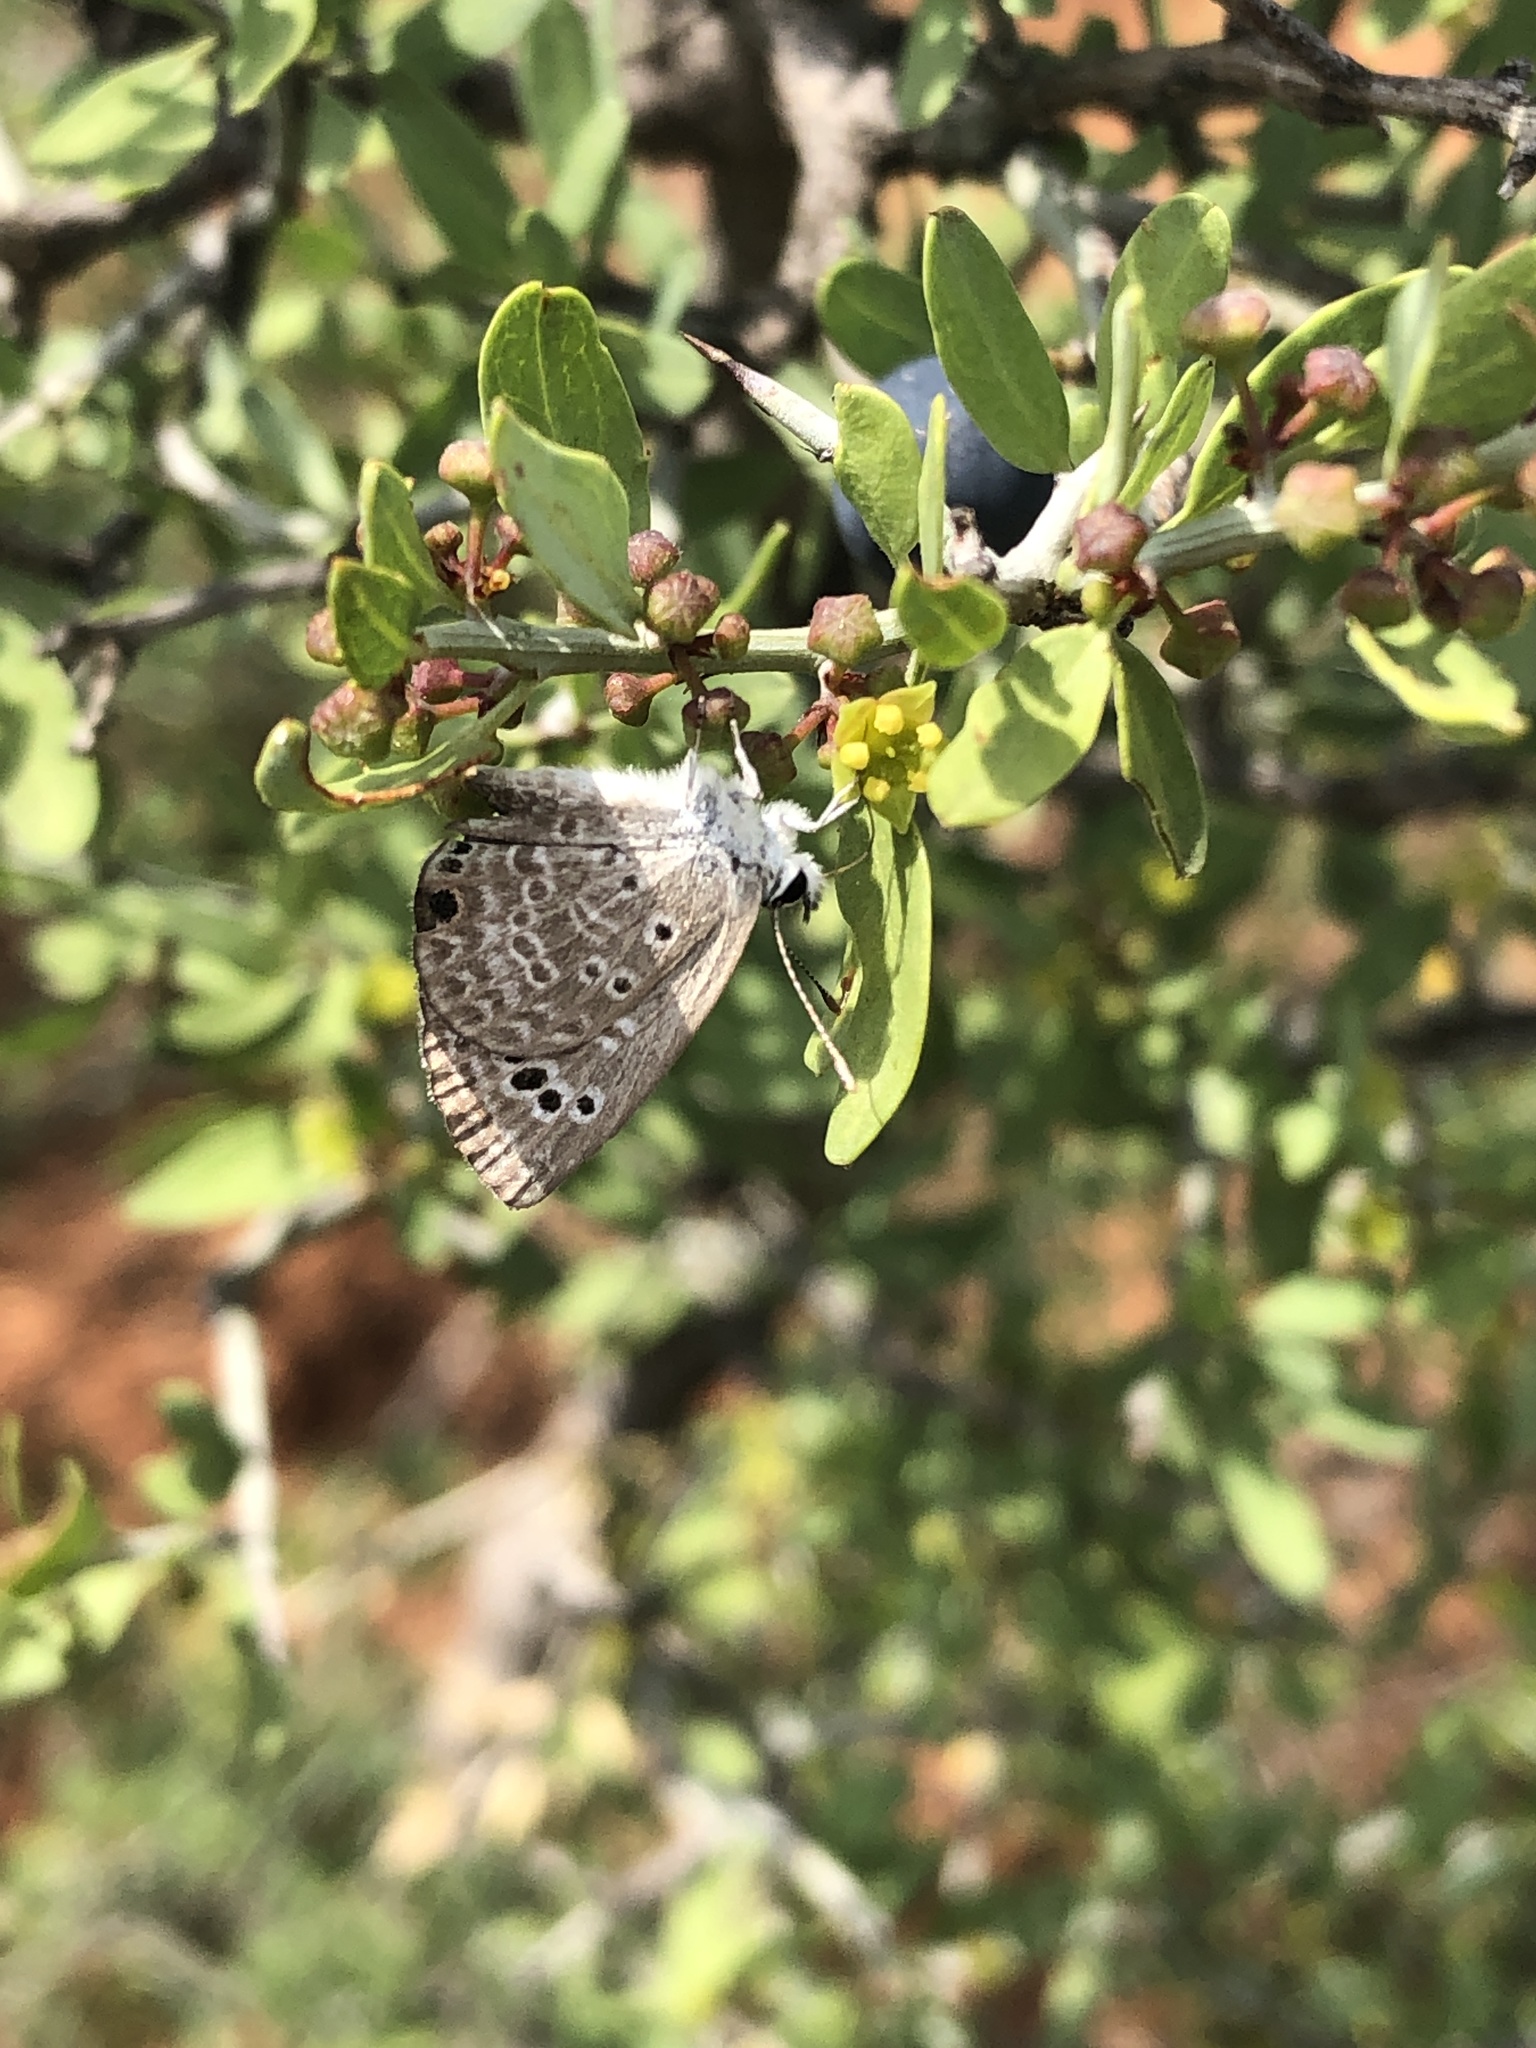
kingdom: Animalia
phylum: Arthropoda
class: Insecta
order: Lepidoptera
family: Lycaenidae
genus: Echinargus
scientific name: Echinargus isola
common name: Reakirt's blue
